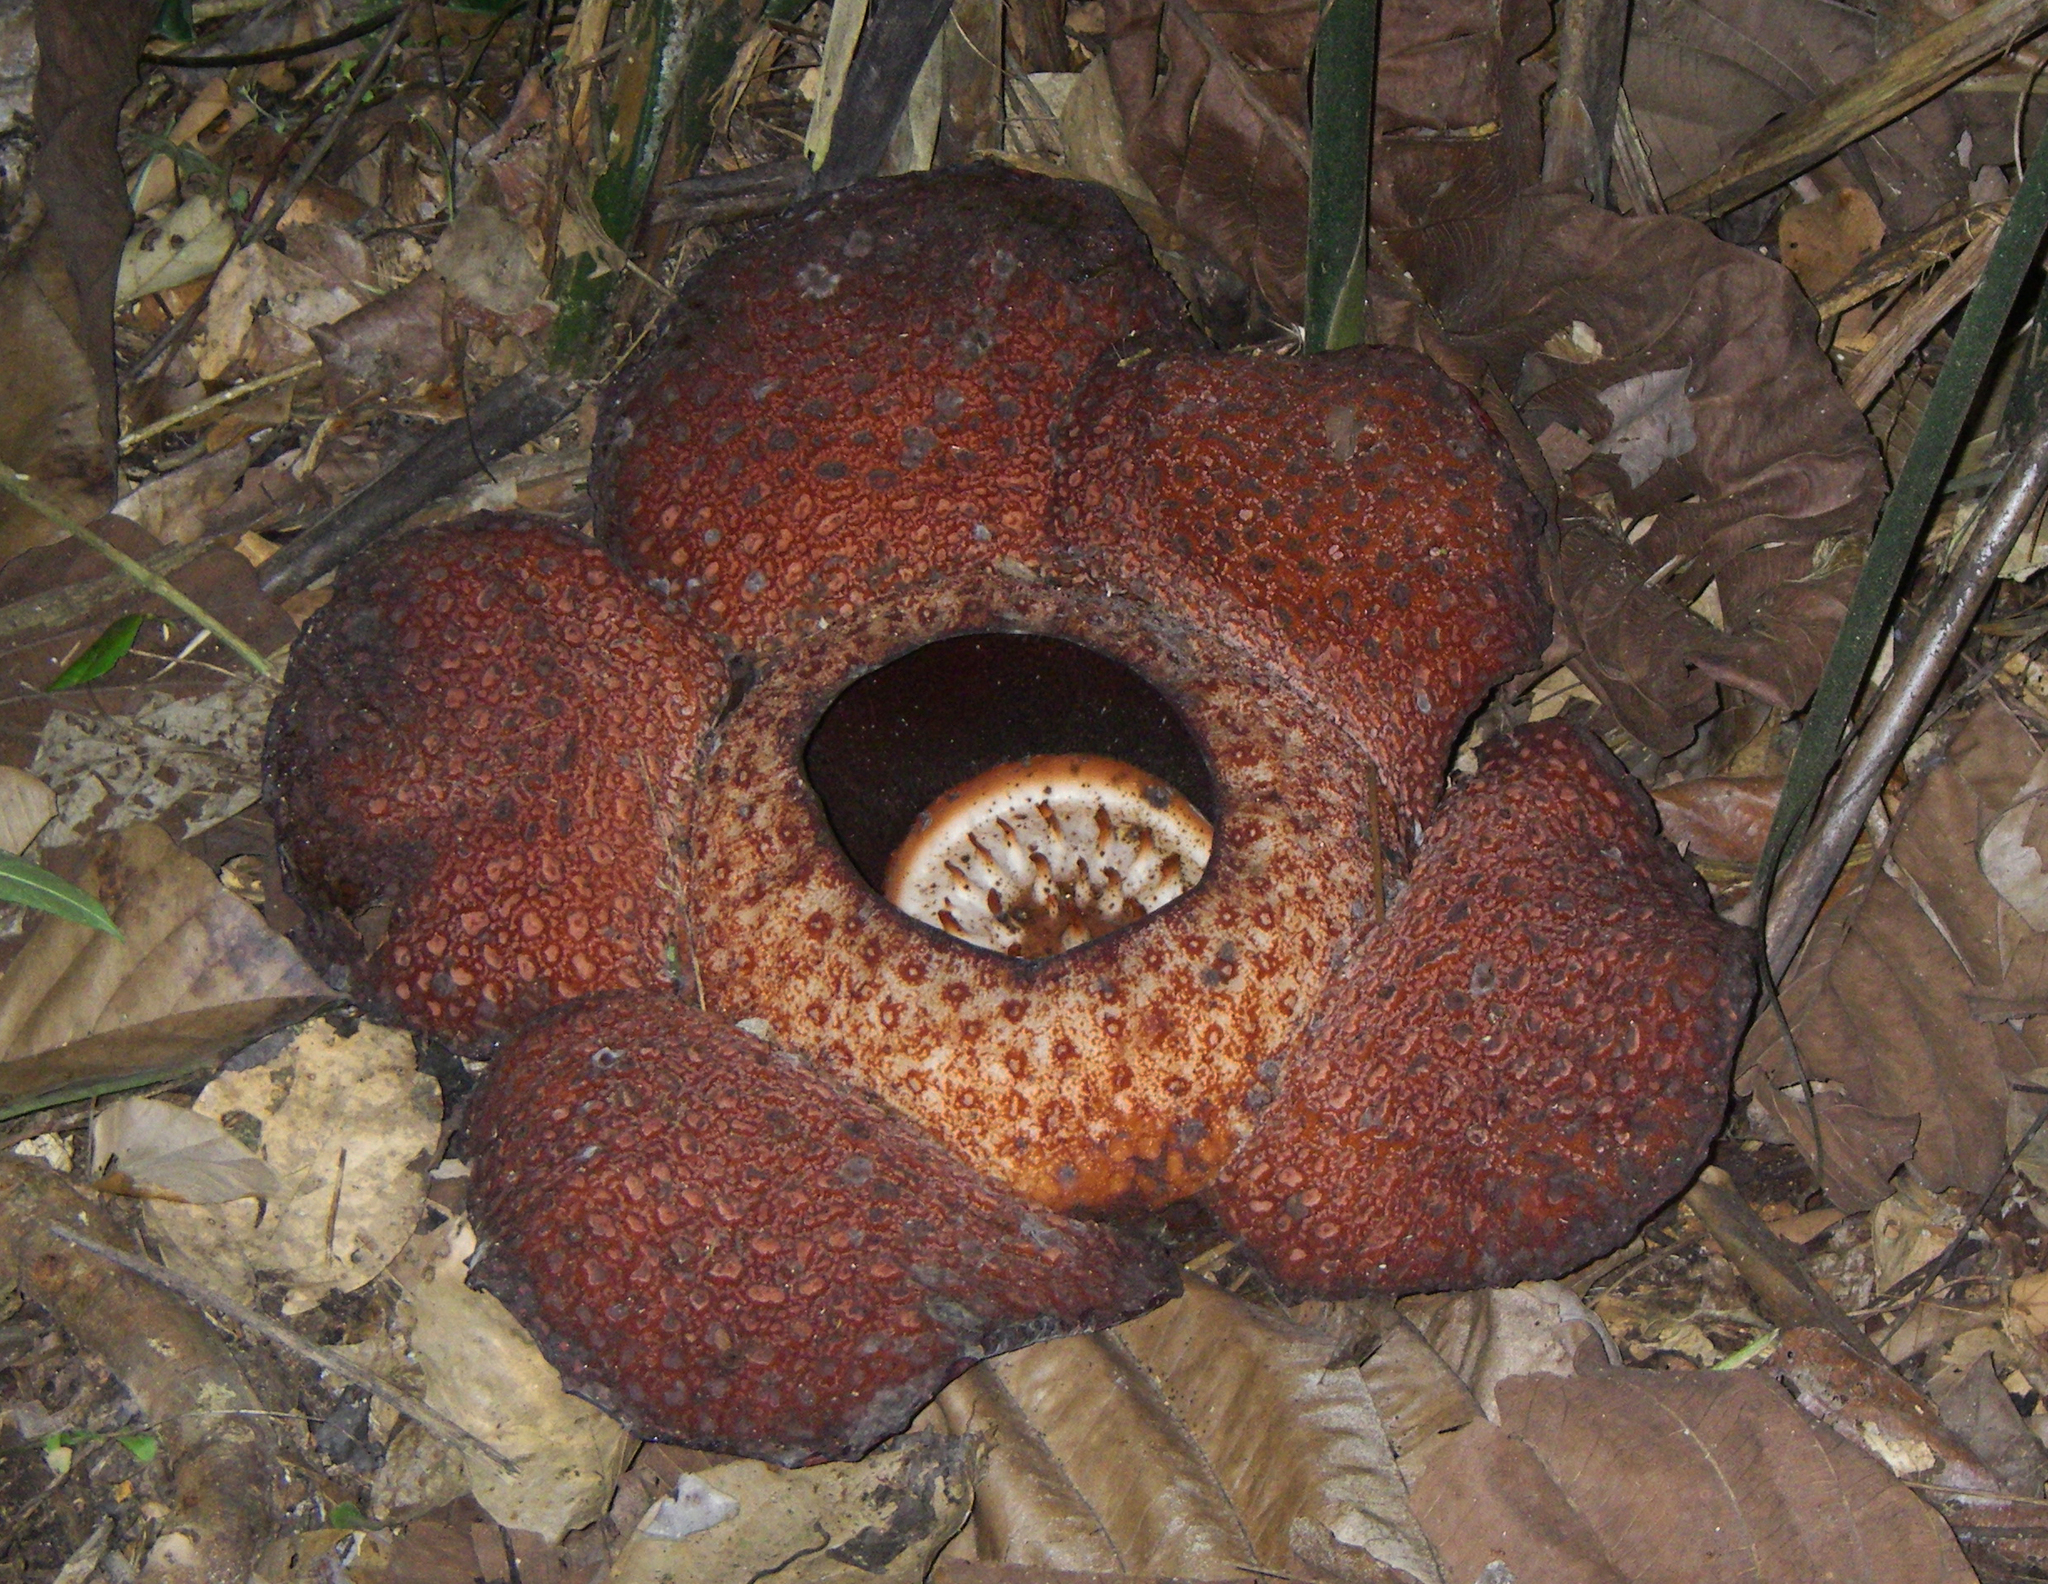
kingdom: Plantae
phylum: Tracheophyta
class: Magnoliopsida
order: Malpighiales
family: Rafflesiaceae
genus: Rafflesia
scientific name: Rafflesia keithii
